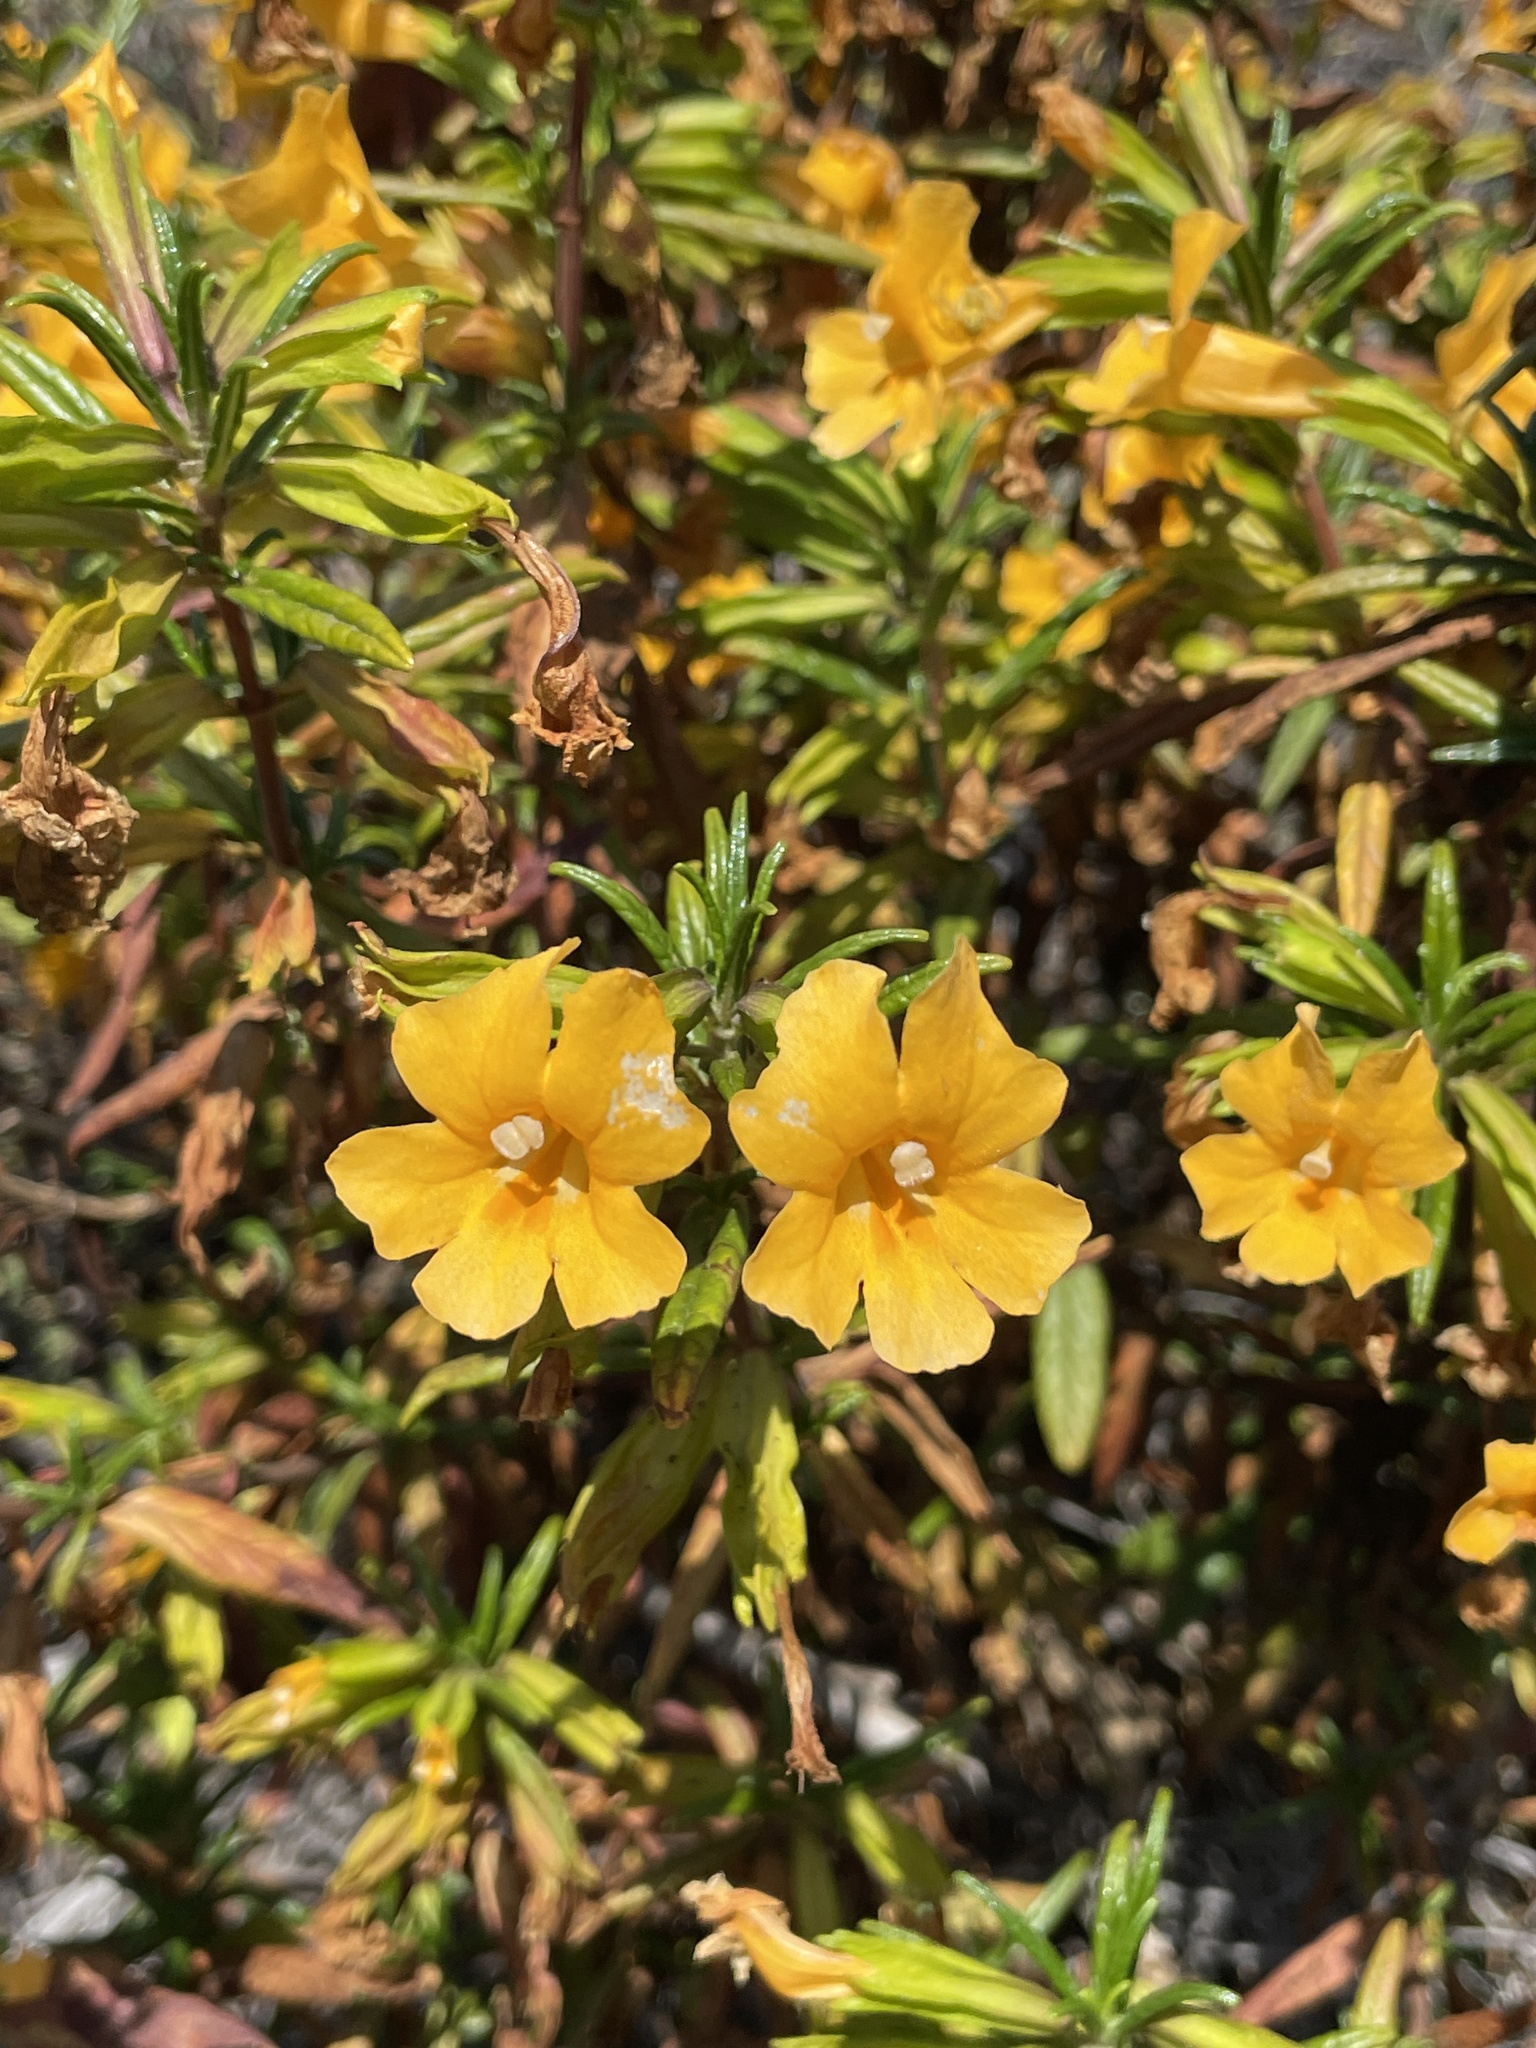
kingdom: Plantae
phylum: Tracheophyta
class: Magnoliopsida
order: Lamiales
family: Phrymaceae
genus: Diplacus
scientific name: Diplacus aurantiacus
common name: Bush monkey-flower
